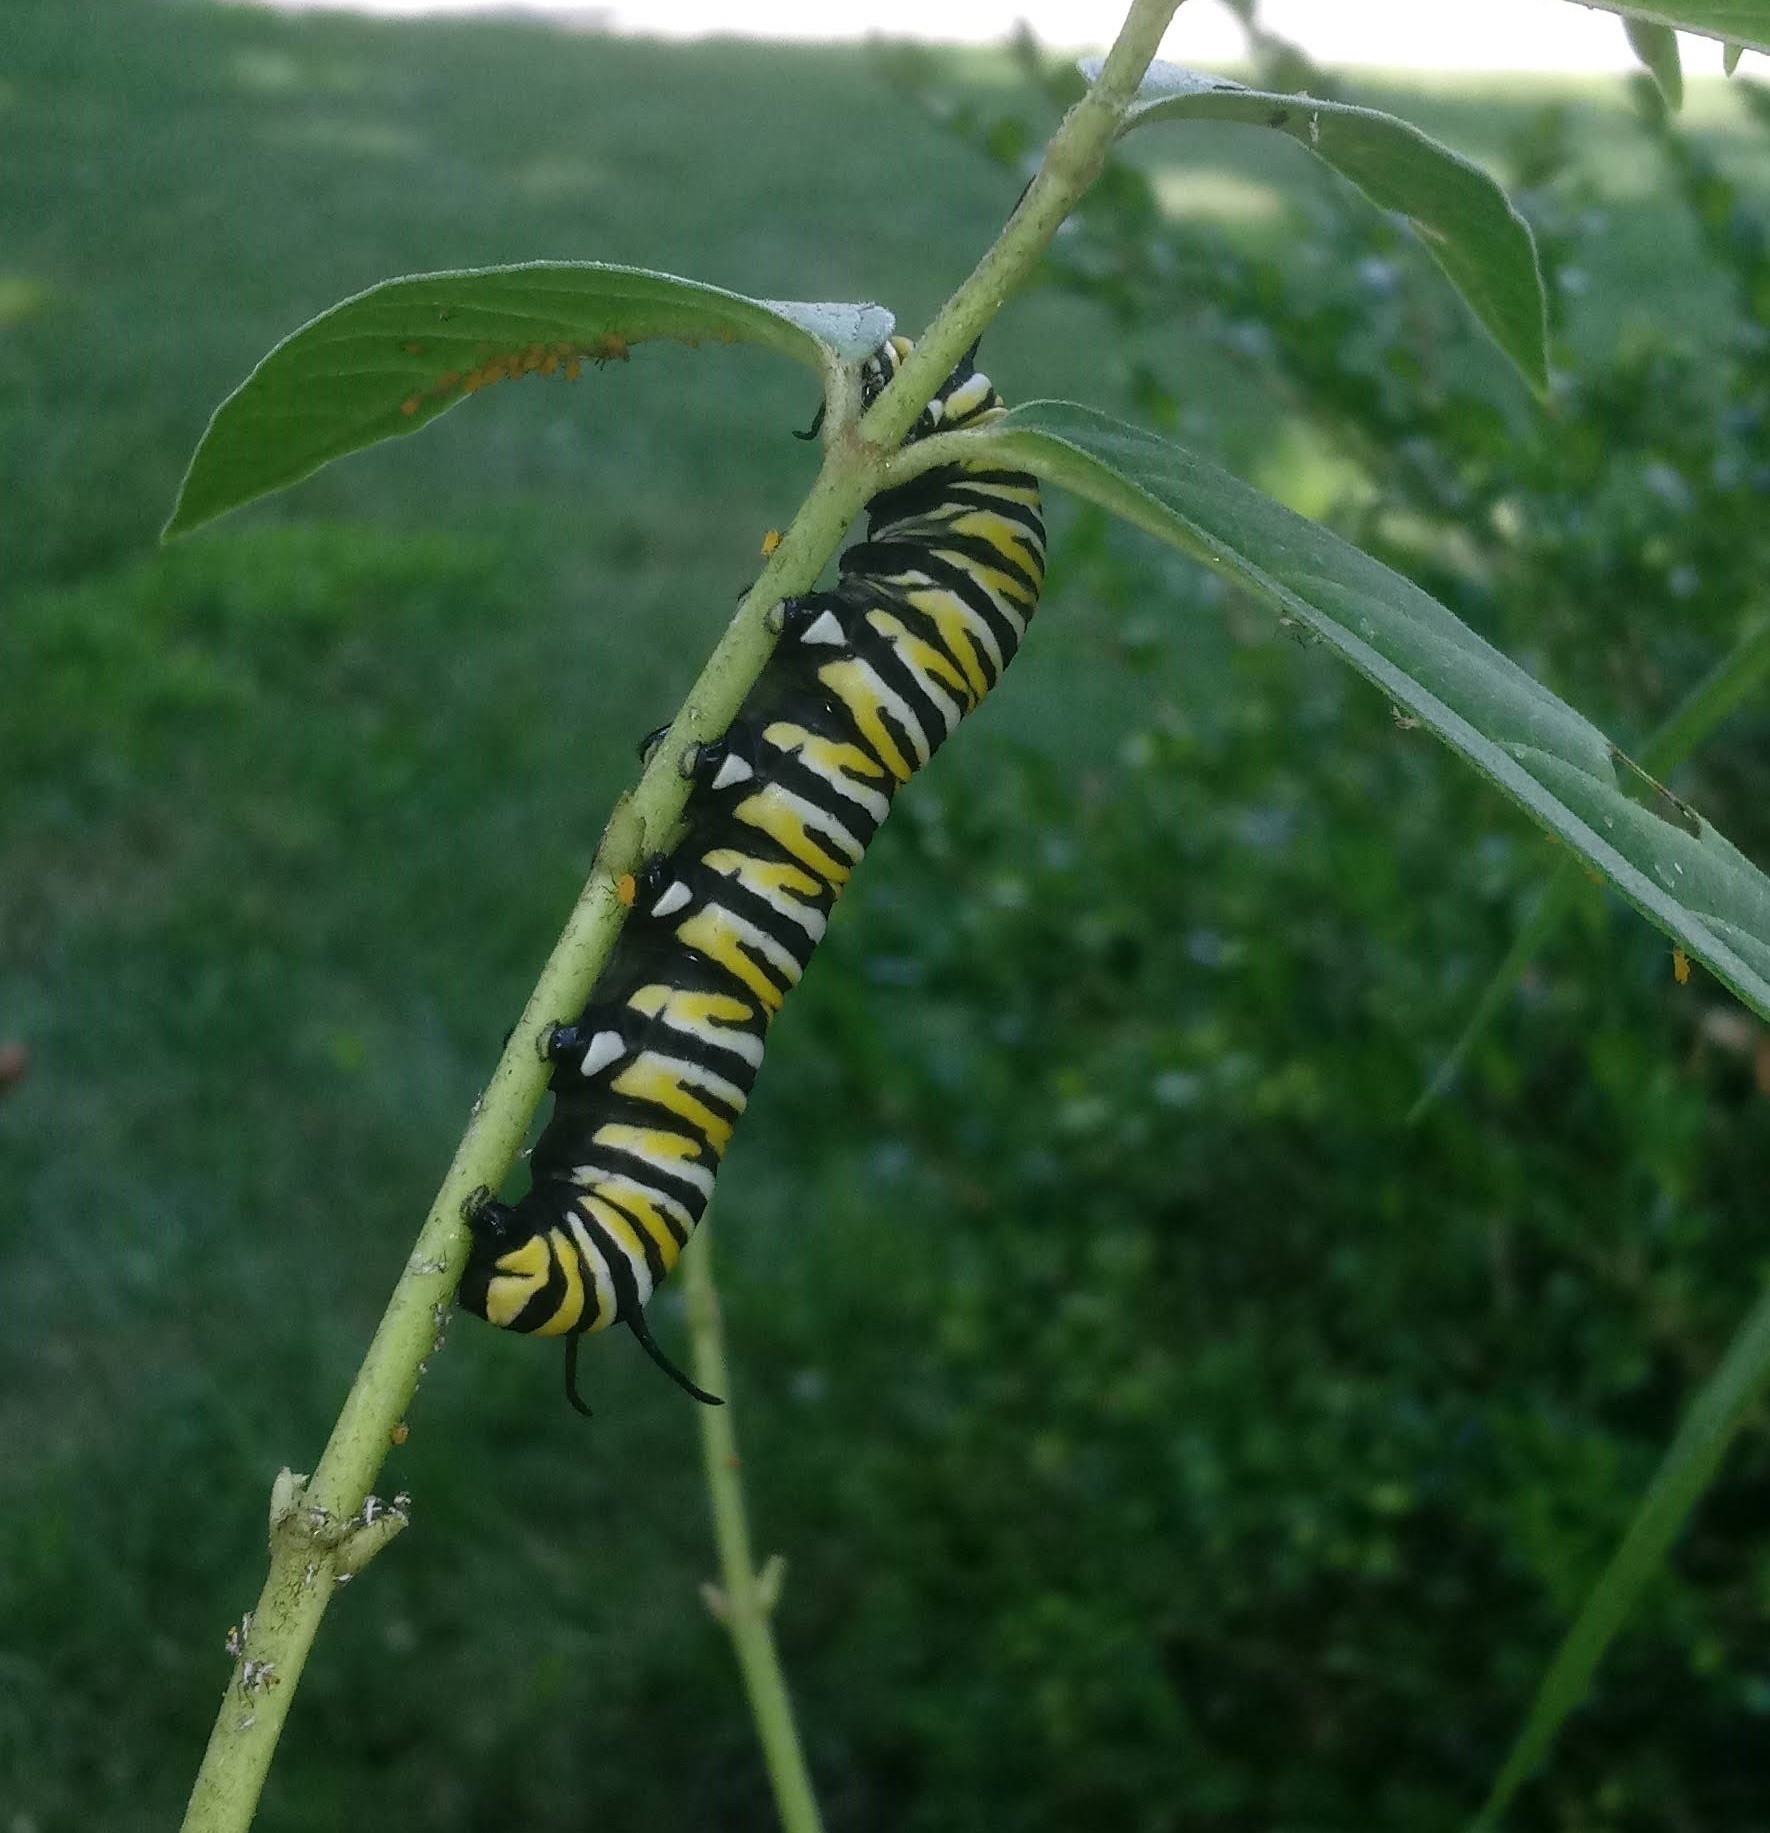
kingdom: Animalia
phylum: Arthropoda
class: Insecta
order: Lepidoptera
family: Nymphalidae
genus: Danaus
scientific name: Danaus plexippus
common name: Monarch
